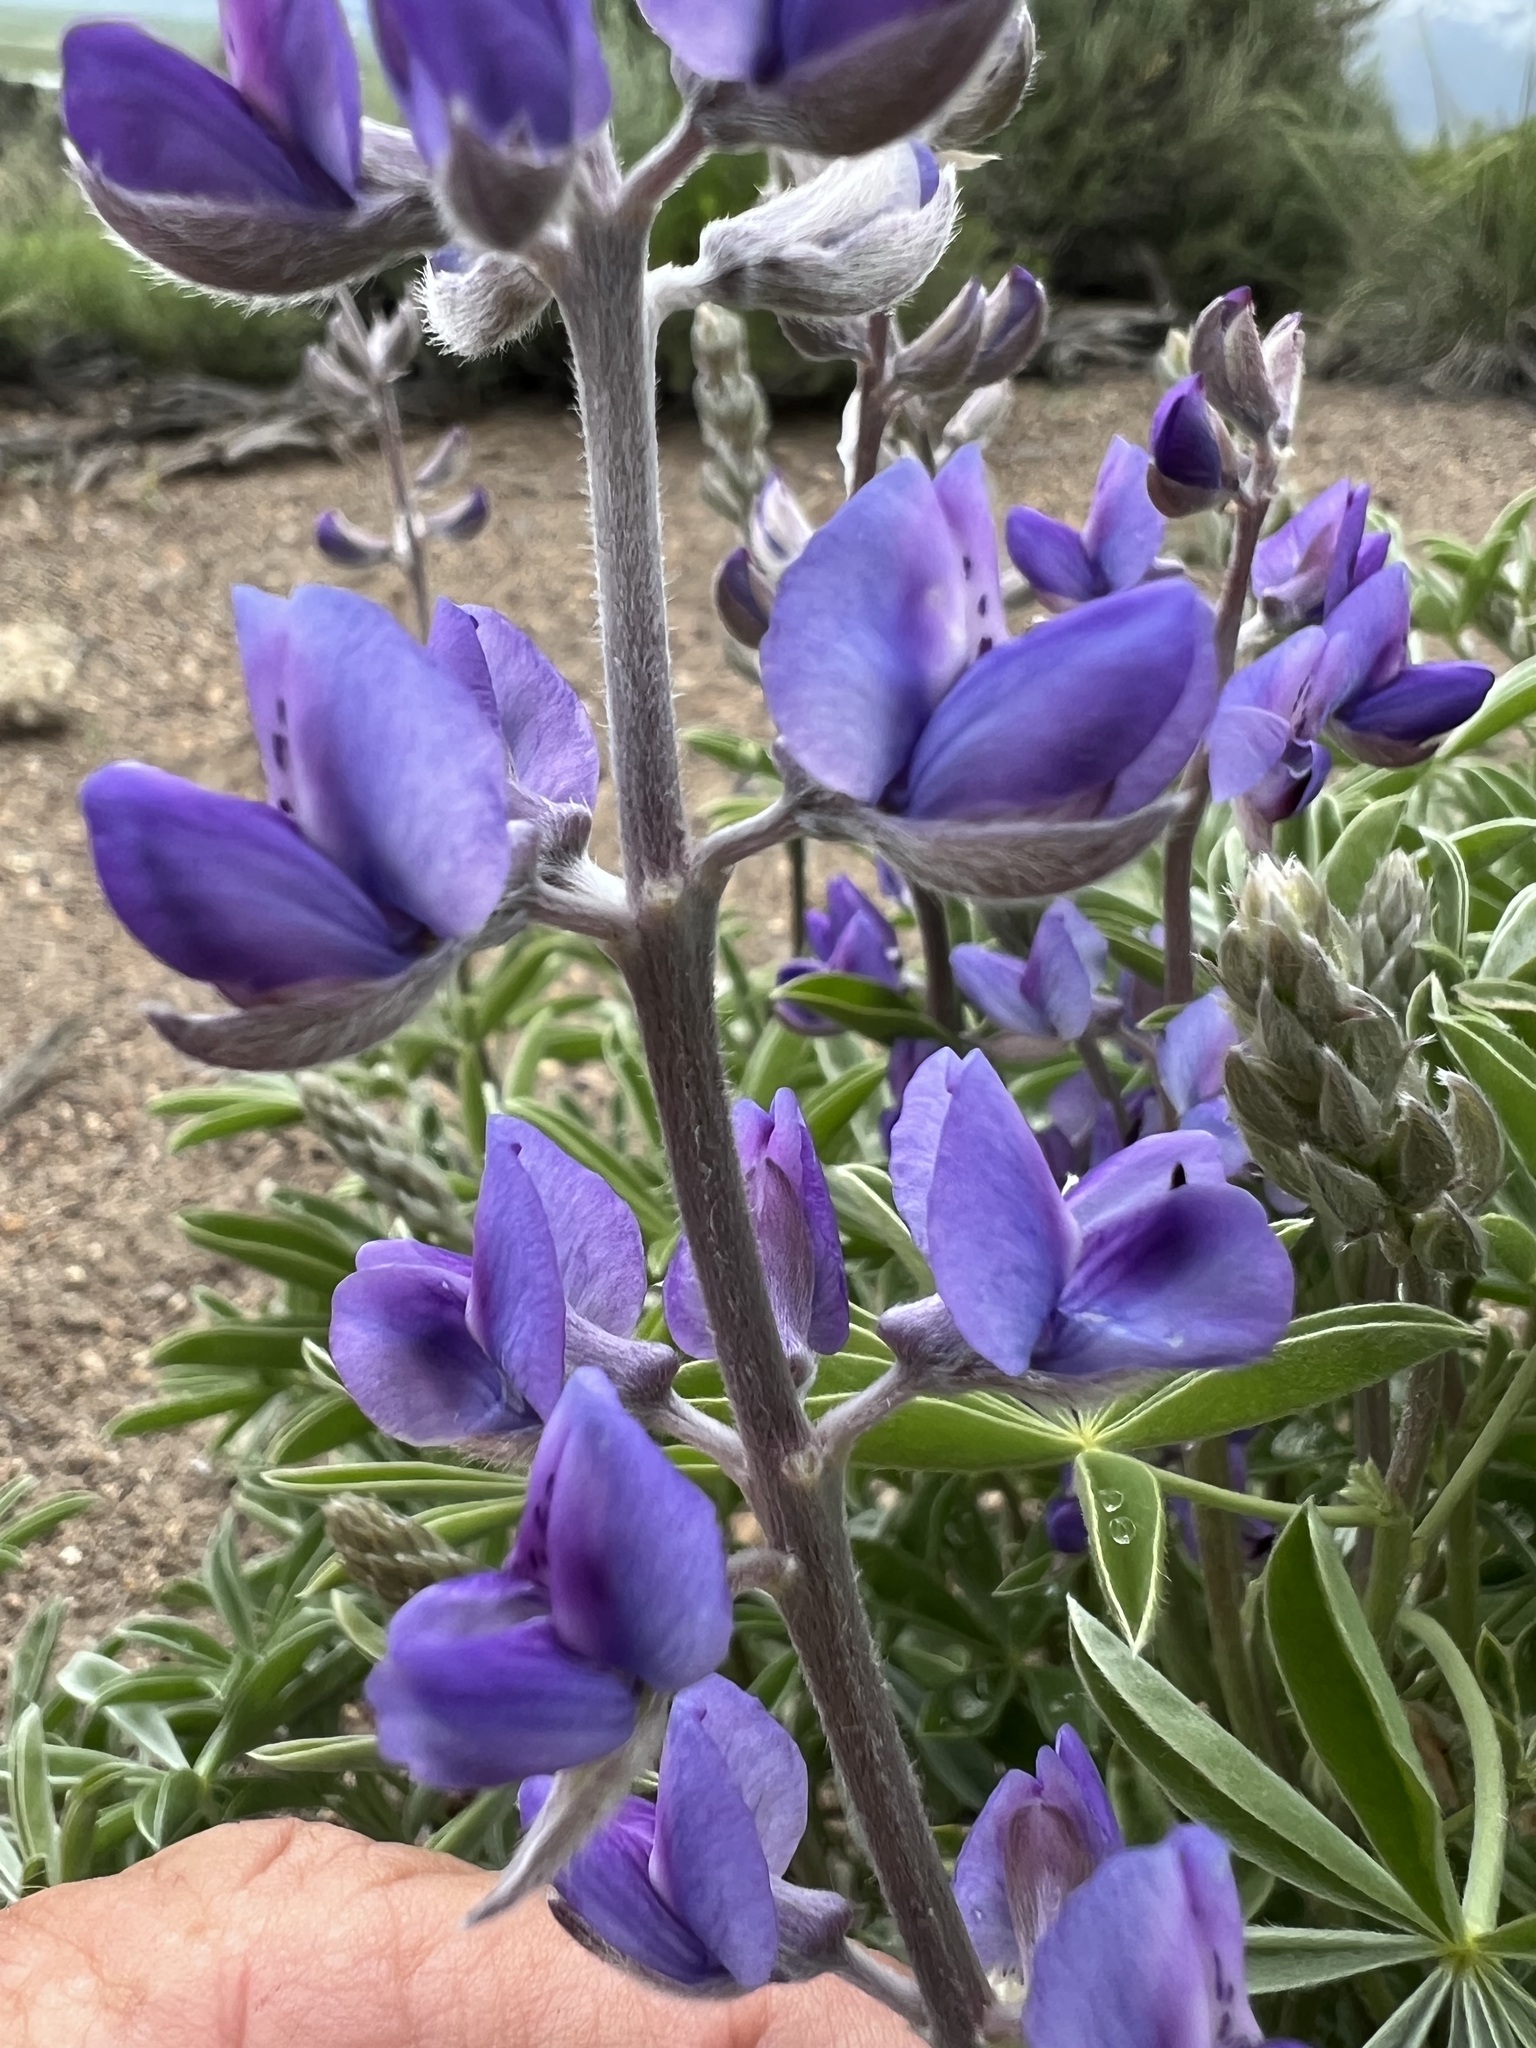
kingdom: Plantae
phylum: Tracheophyta
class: Magnoliopsida
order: Fabales
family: Fabaceae
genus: Lupinus
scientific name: Lupinus caudatus
